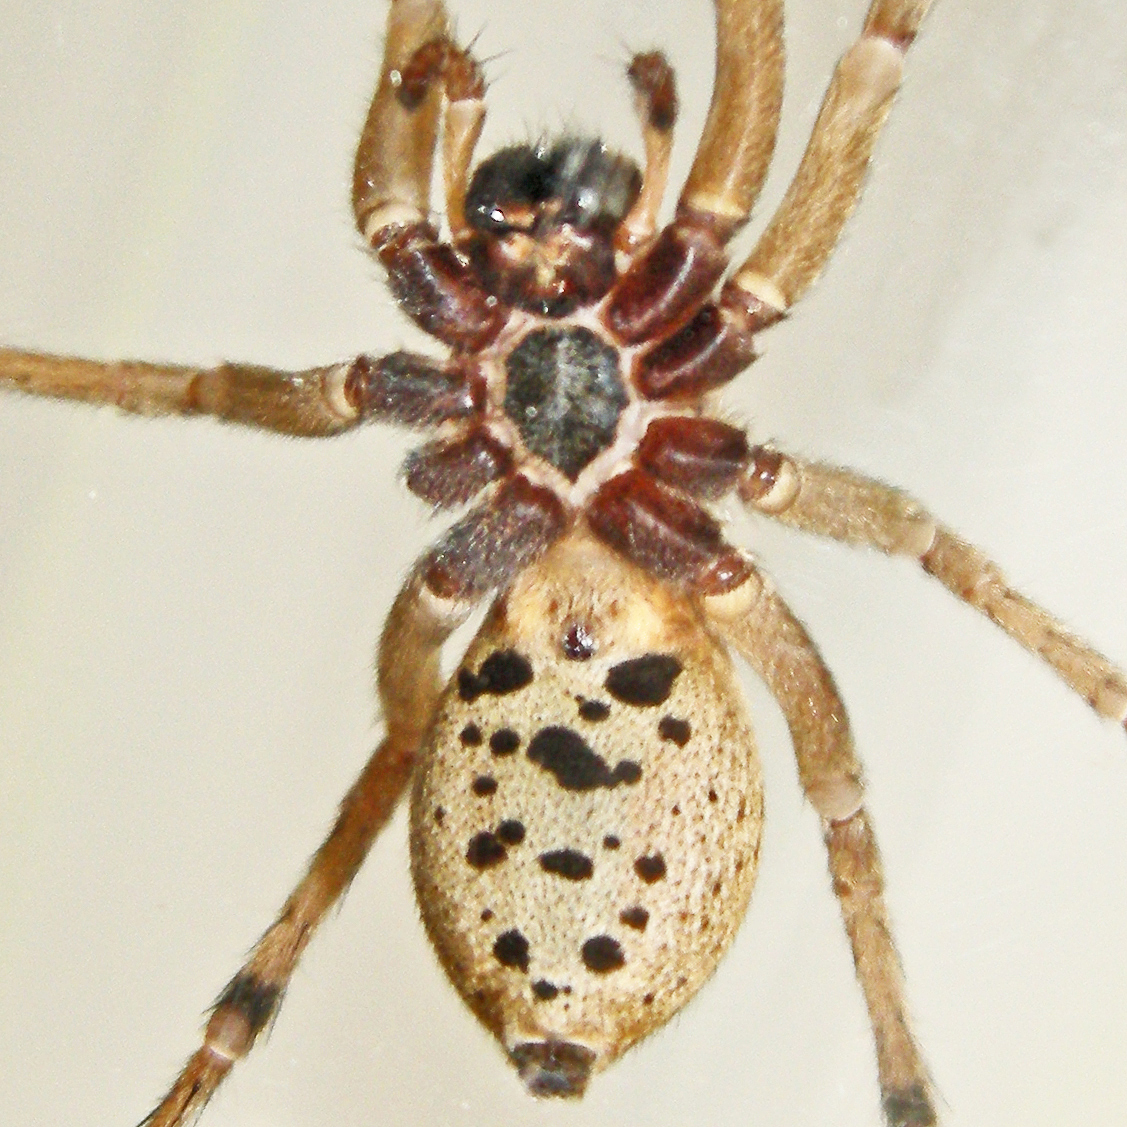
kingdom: Animalia
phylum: Arthropoda
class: Arachnida
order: Araneae
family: Lycosidae
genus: Rabidosa
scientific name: Rabidosa punctulata
